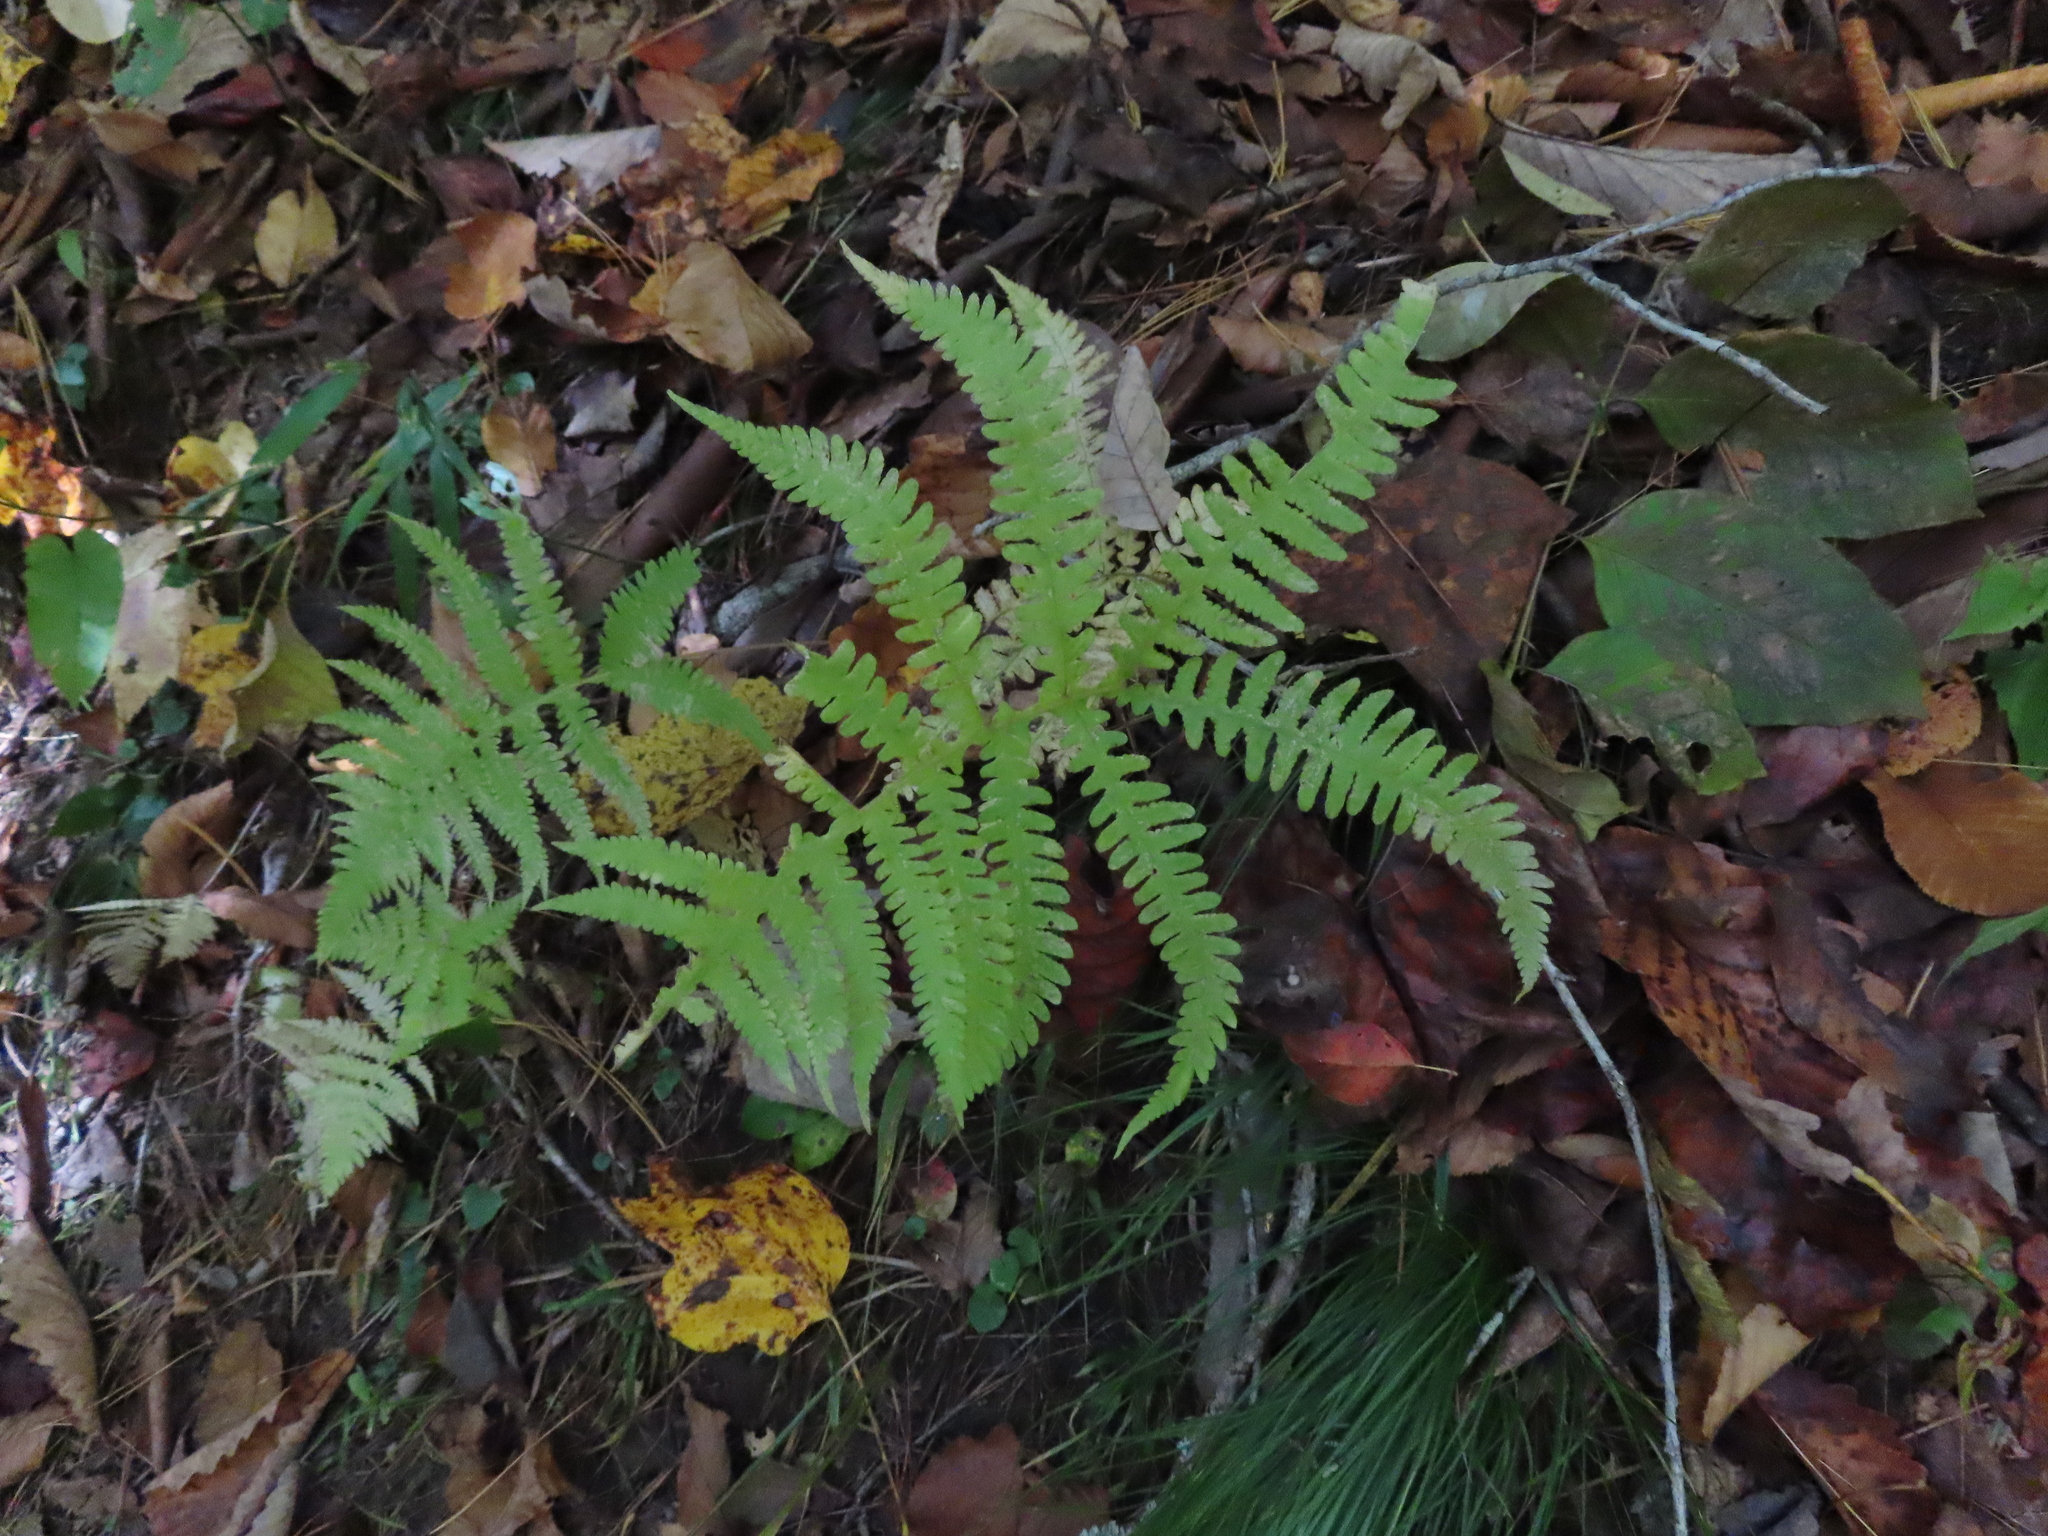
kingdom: Plantae
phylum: Tracheophyta
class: Polypodiopsida
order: Polypodiales
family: Thelypteridaceae
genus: Phegopteris
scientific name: Phegopteris hexagonoptera
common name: Broad beech fern
